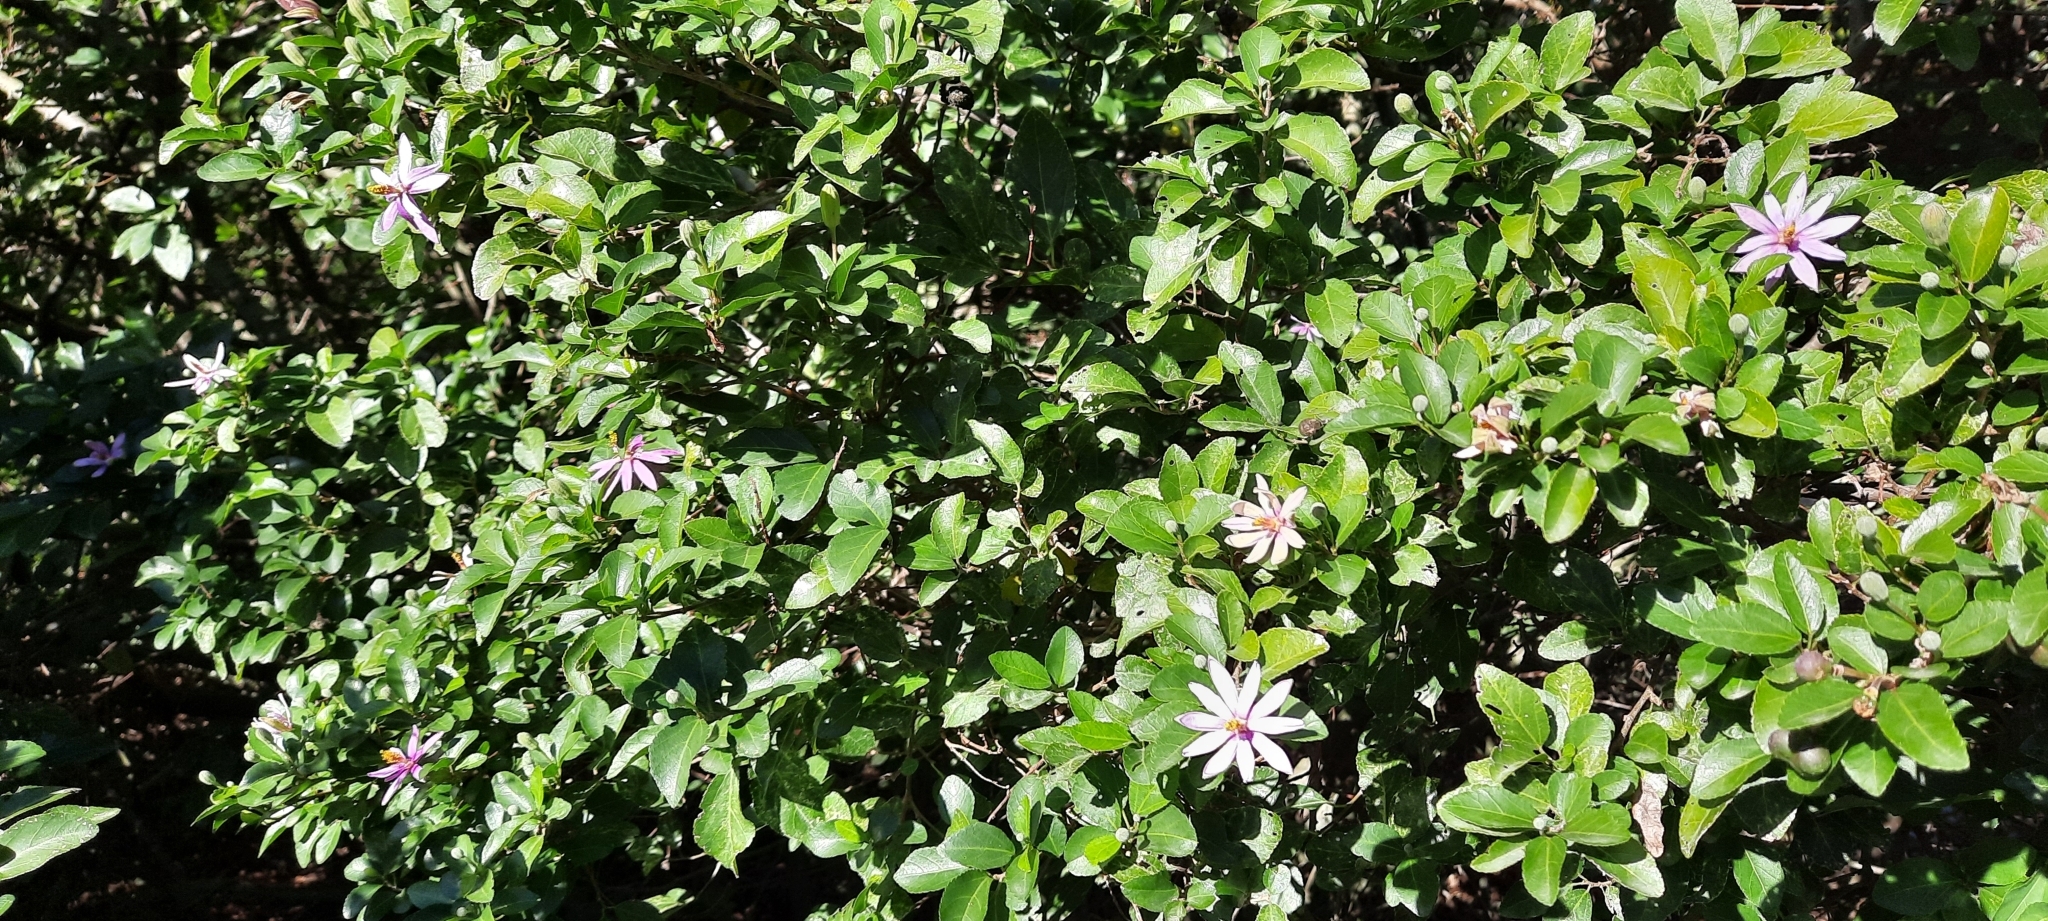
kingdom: Plantae
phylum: Tracheophyta
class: Magnoliopsida
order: Malvales
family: Malvaceae
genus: Grewia
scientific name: Grewia occidentalis
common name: Crossberry
